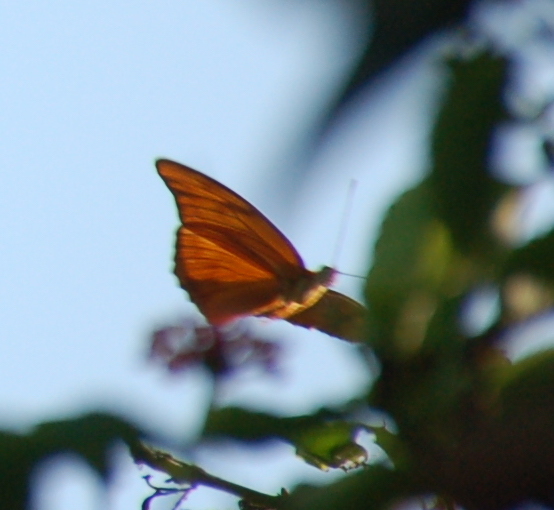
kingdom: Animalia
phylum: Arthropoda
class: Insecta
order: Lepidoptera
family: Nymphalidae
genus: Dryas
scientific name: Dryas iulia
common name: Flambeau
